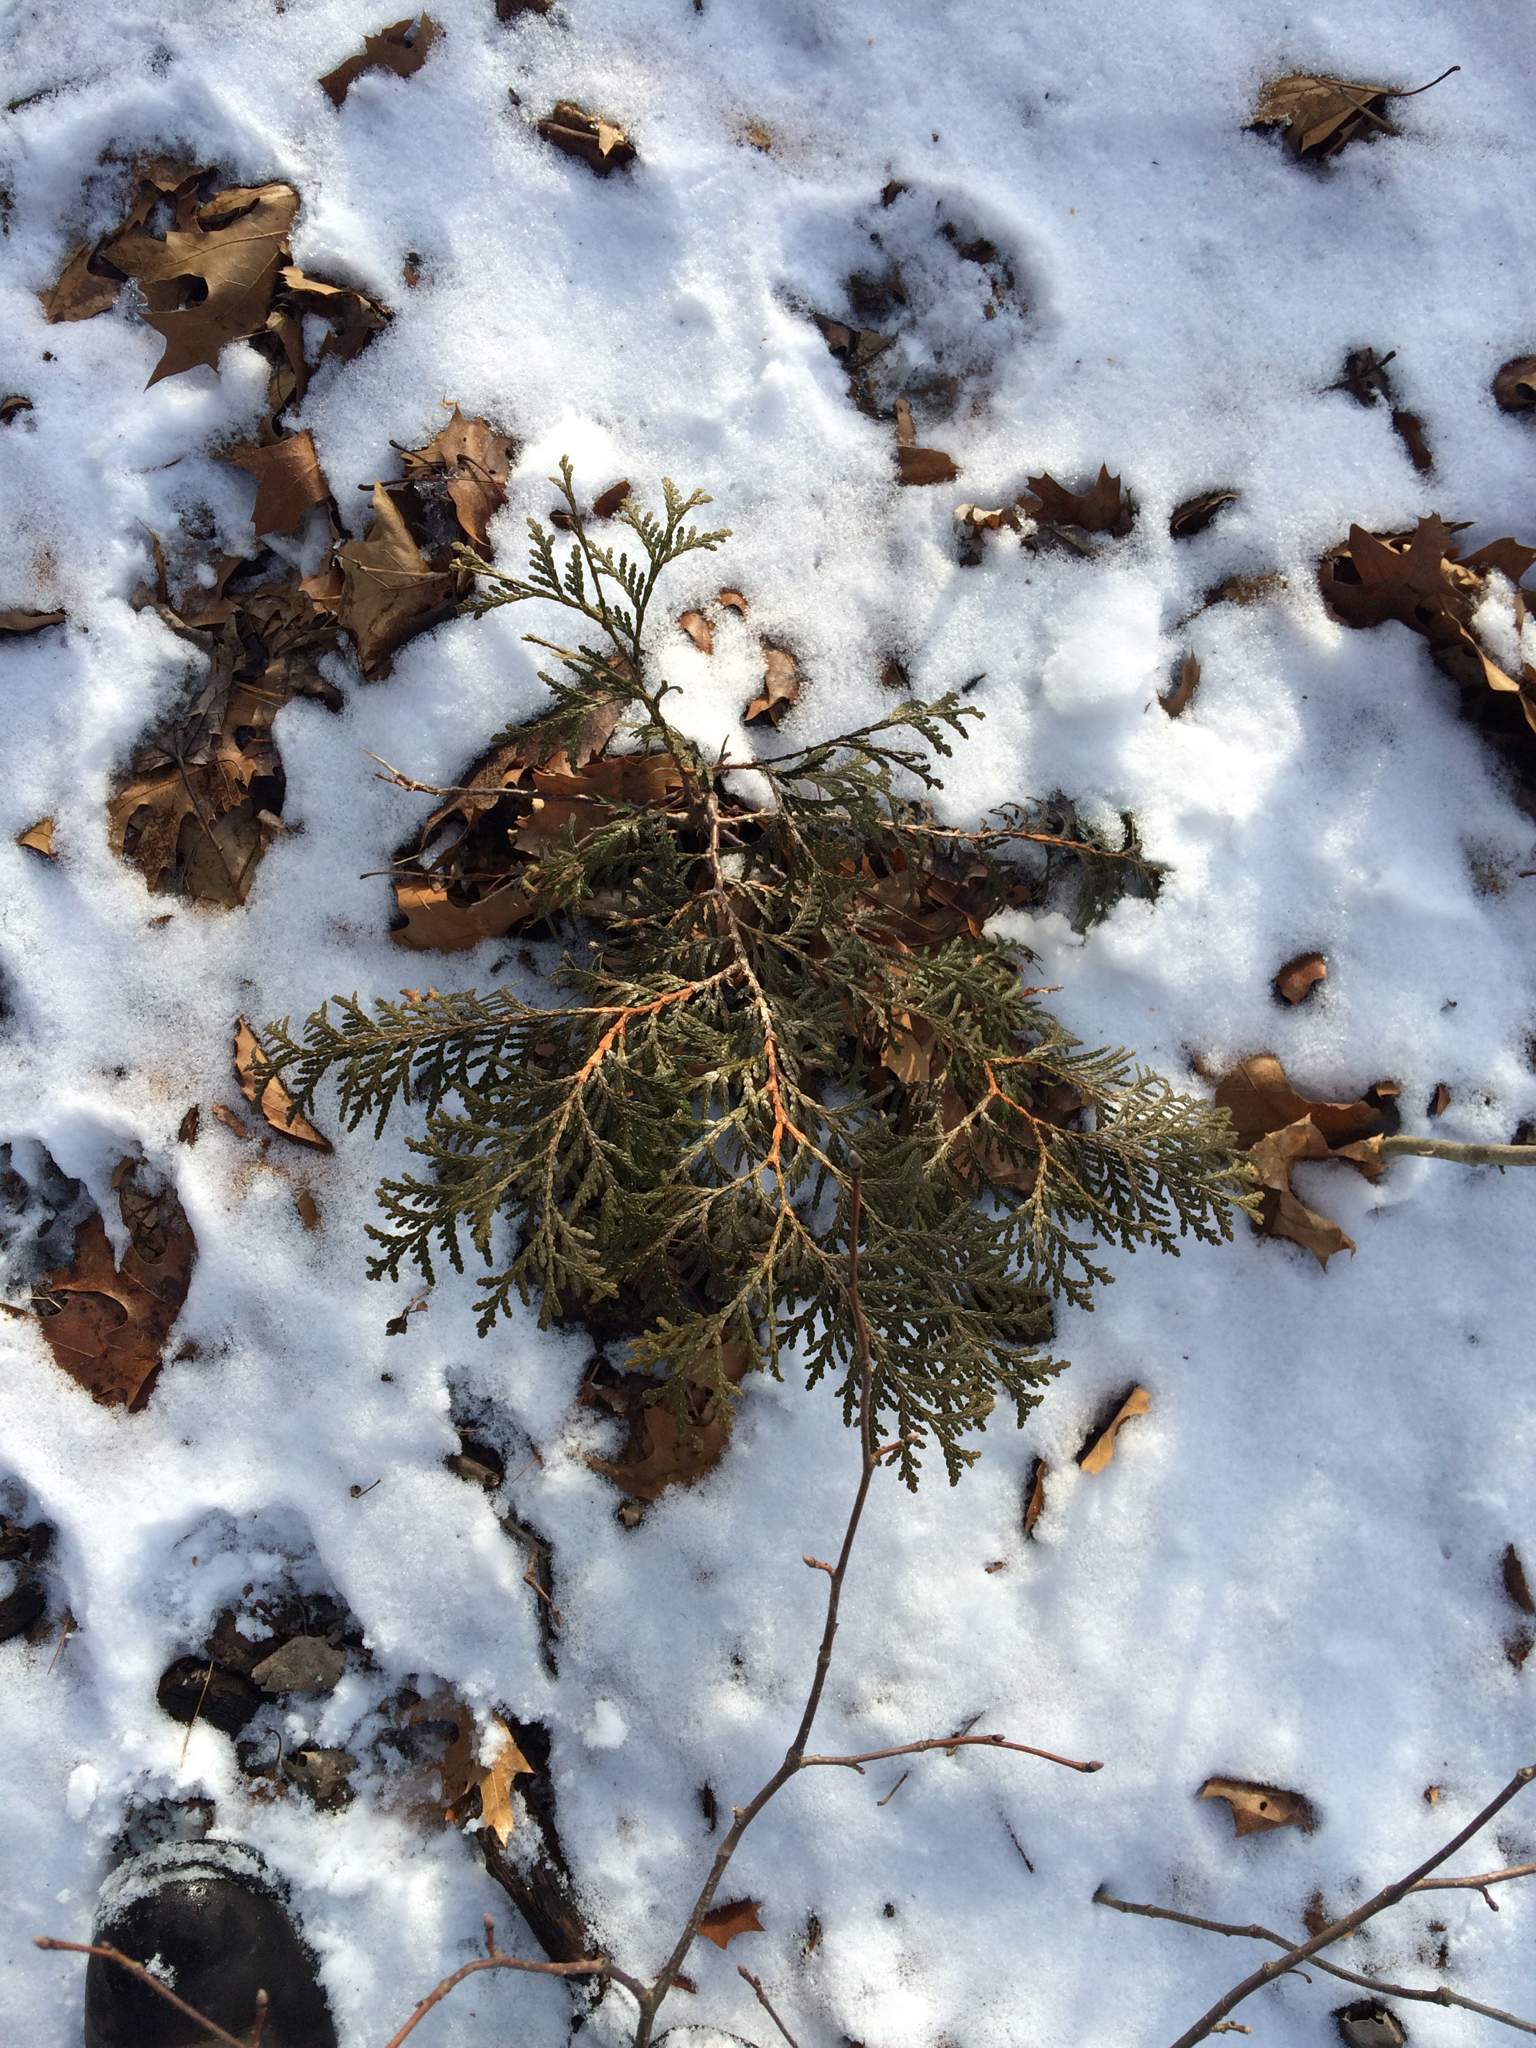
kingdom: Plantae
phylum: Tracheophyta
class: Pinopsida
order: Pinales
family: Cupressaceae
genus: Thuja
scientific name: Thuja occidentalis
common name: Northern white-cedar
